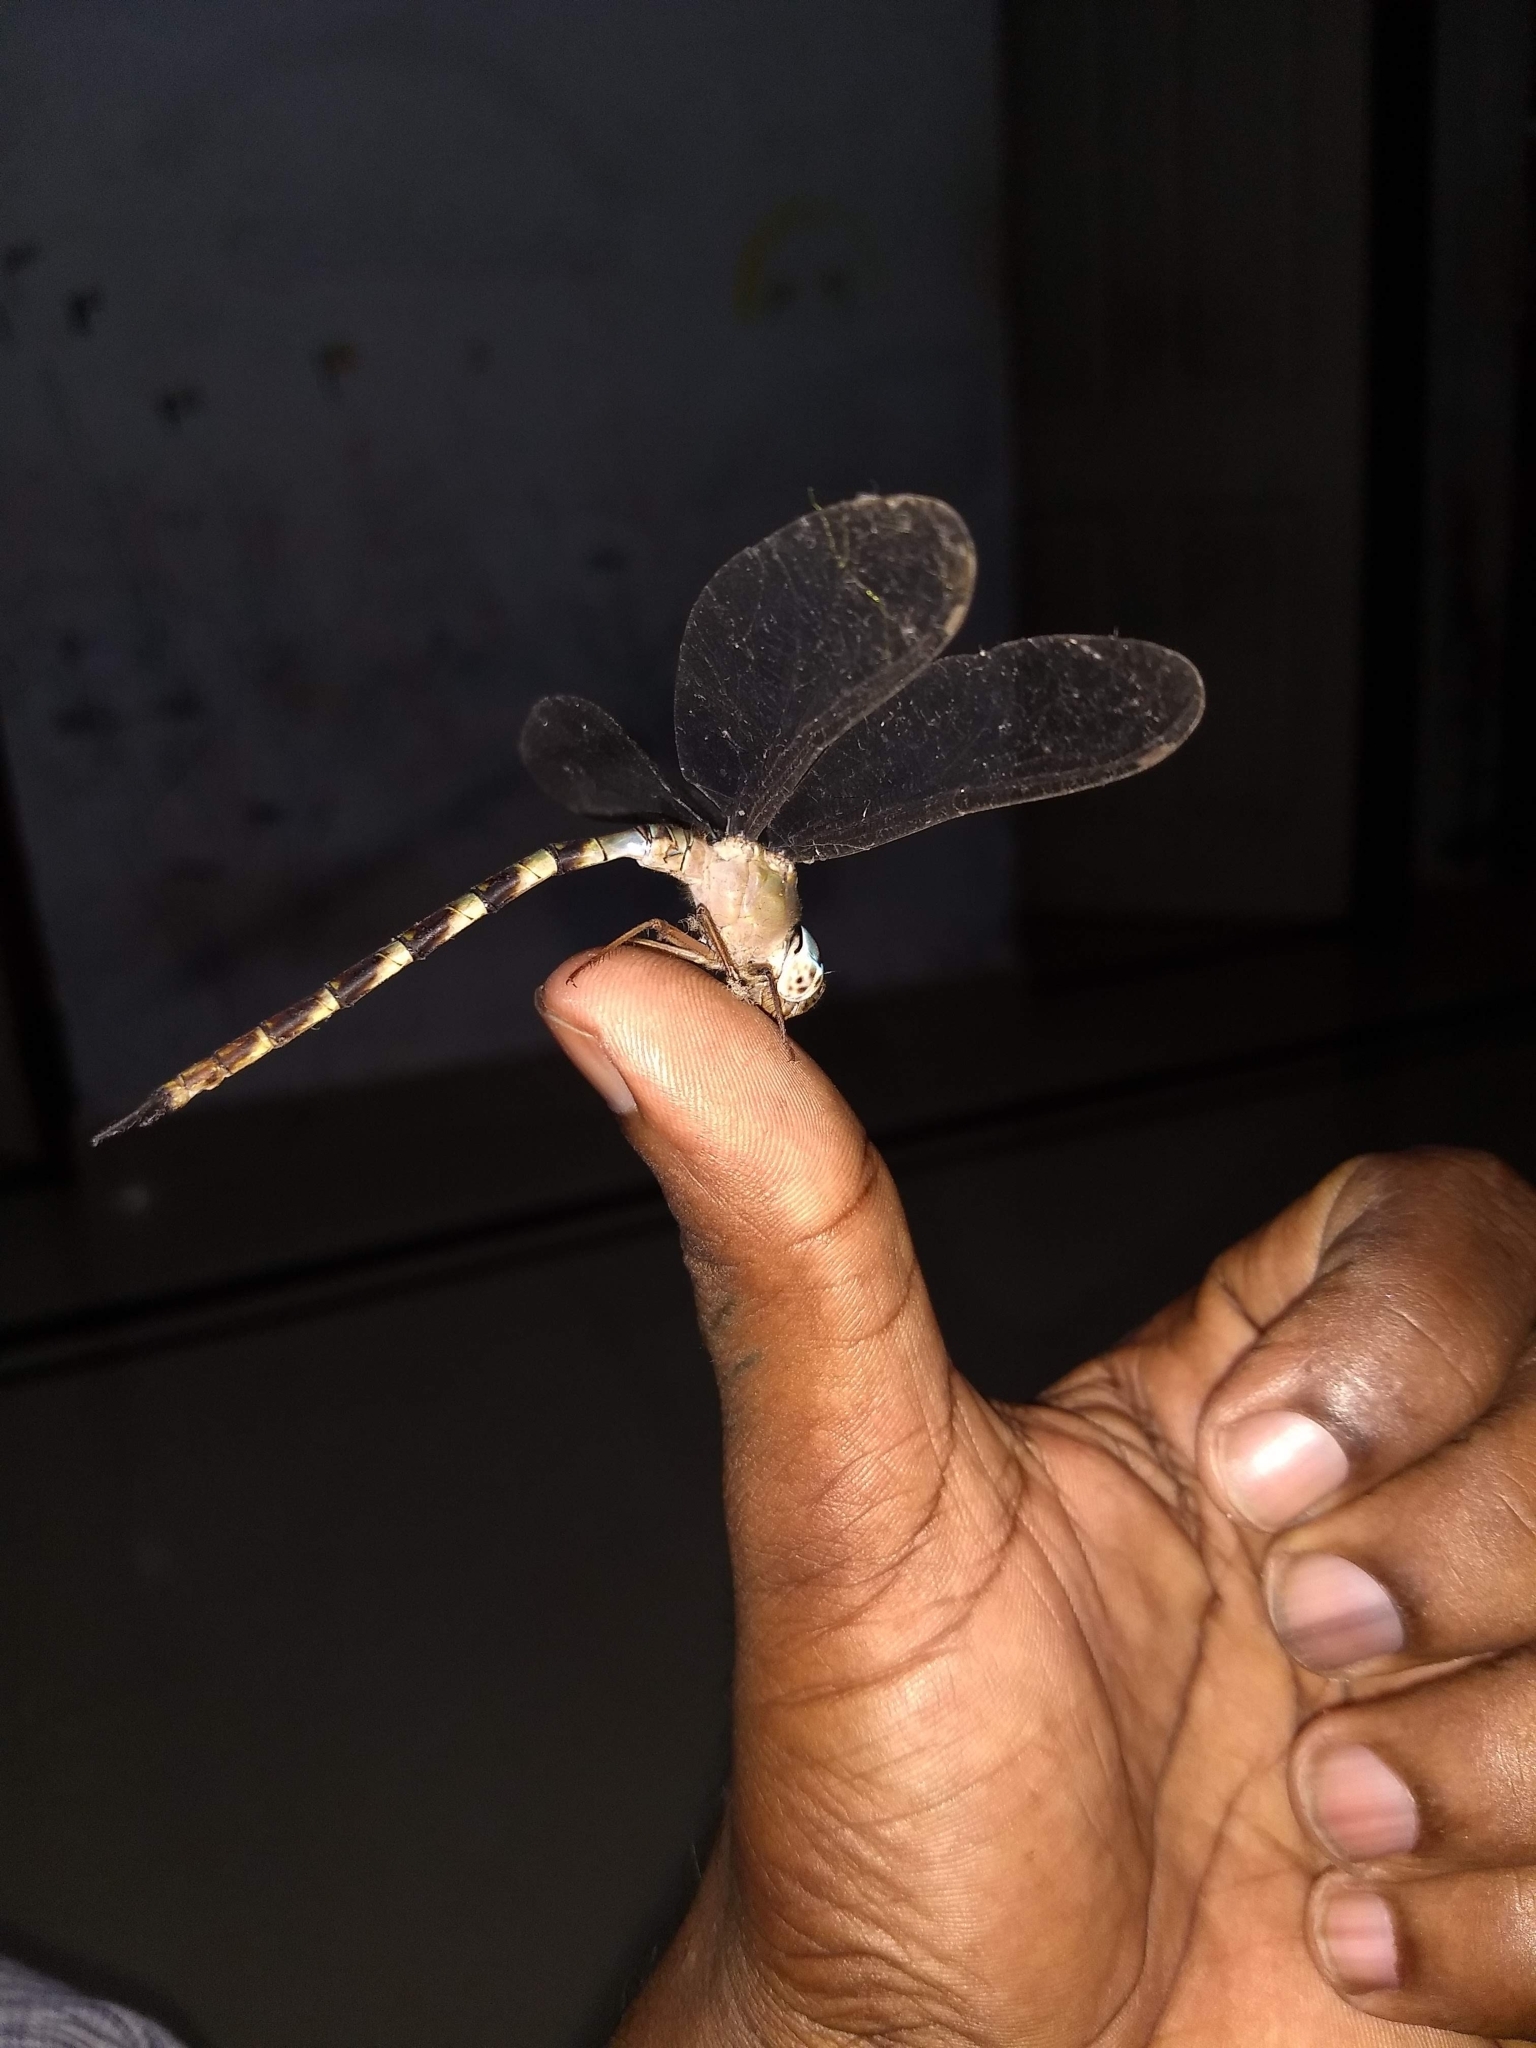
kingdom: Animalia
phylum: Arthropoda
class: Insecta
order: Odonata
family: Aeshnidae
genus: Gynacantha
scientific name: Gynacantha dravida
